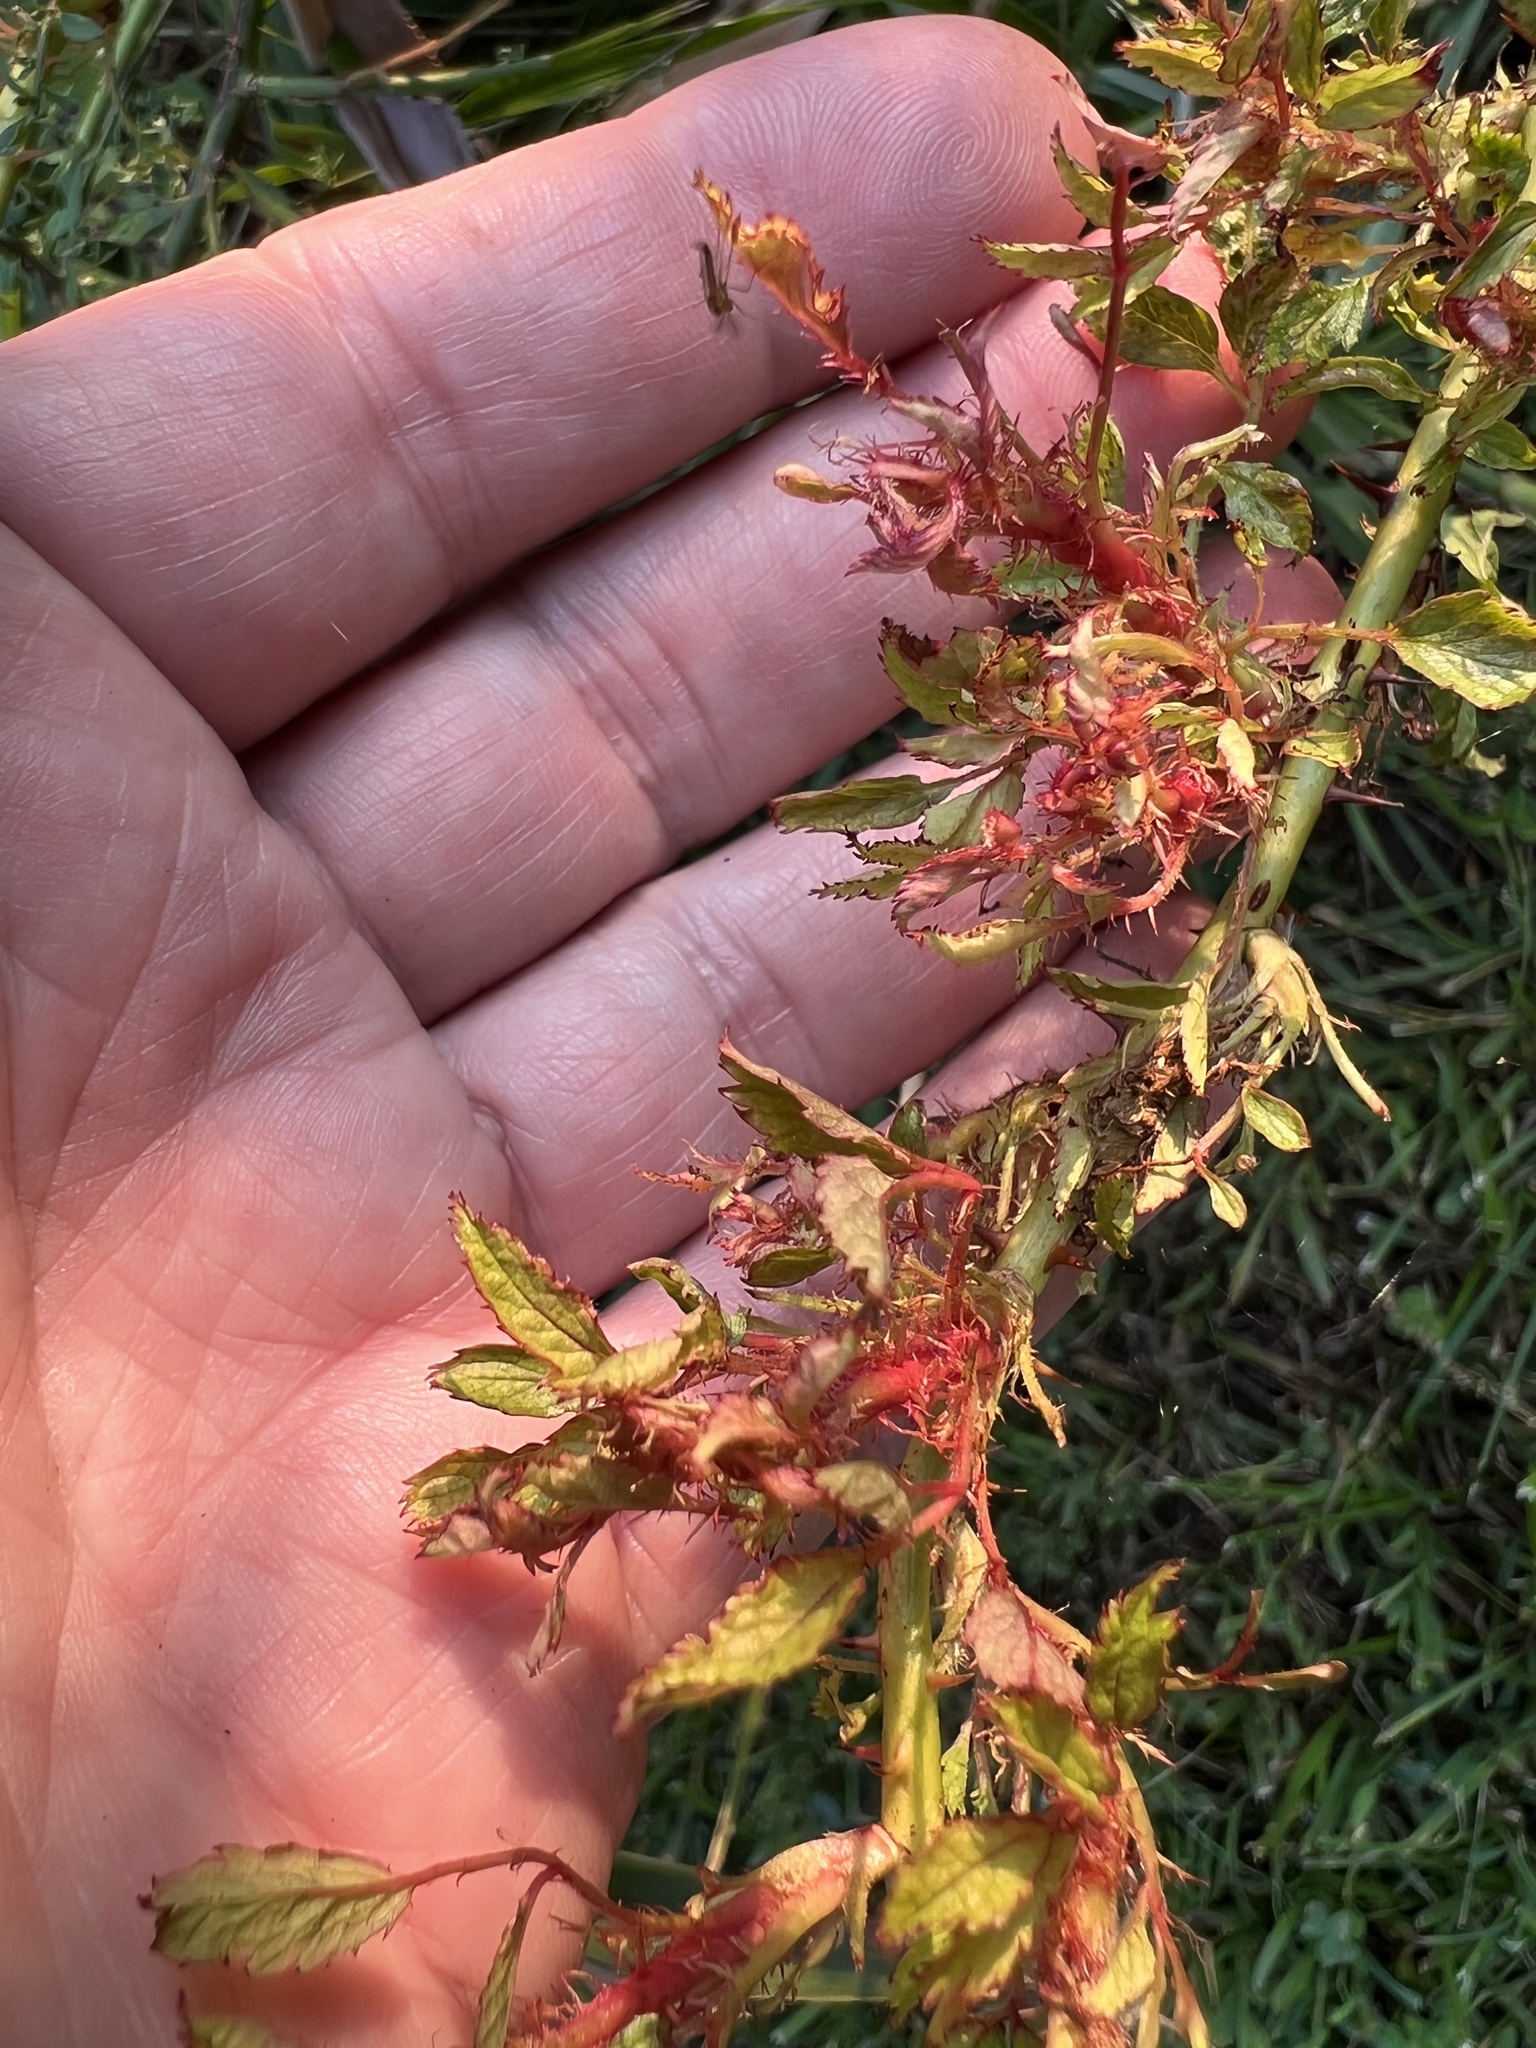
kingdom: Viruses
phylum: Negarnaviricota
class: Ellioviricetes
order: Bunyavirales
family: Fimoviridae
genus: Emaravirus
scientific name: Emaravirus rosae
